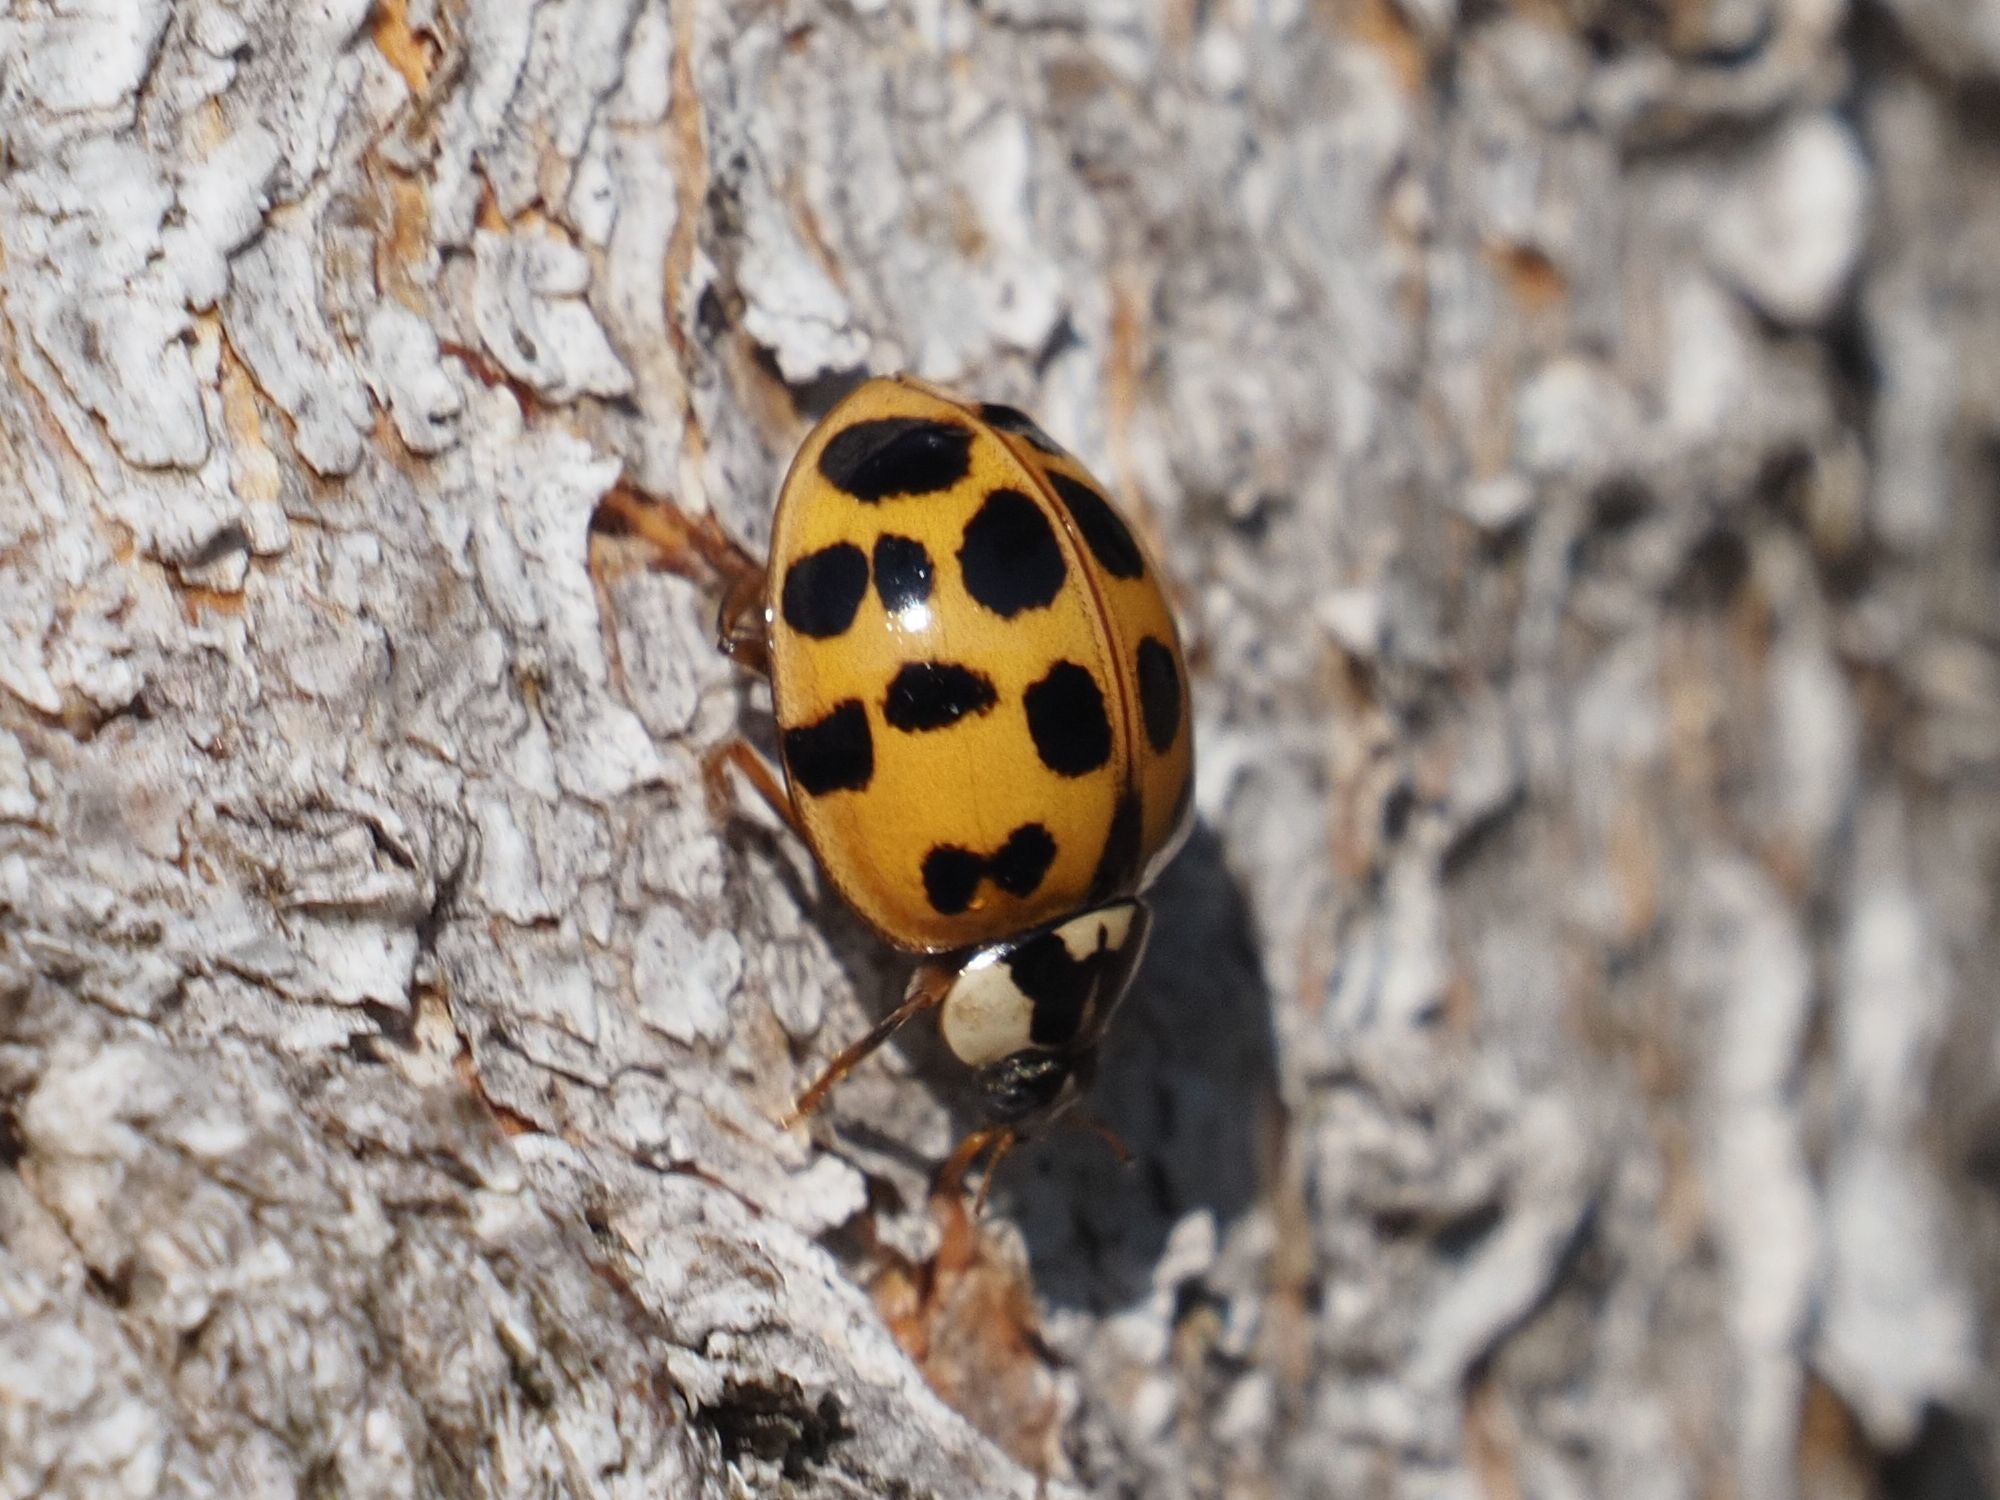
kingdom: Animalia
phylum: Arthropoda
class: Insecta
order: Coleoptera
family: Coccinellidae
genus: Harmonia
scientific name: Harmonia axyridis
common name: Harlequin ladybird
